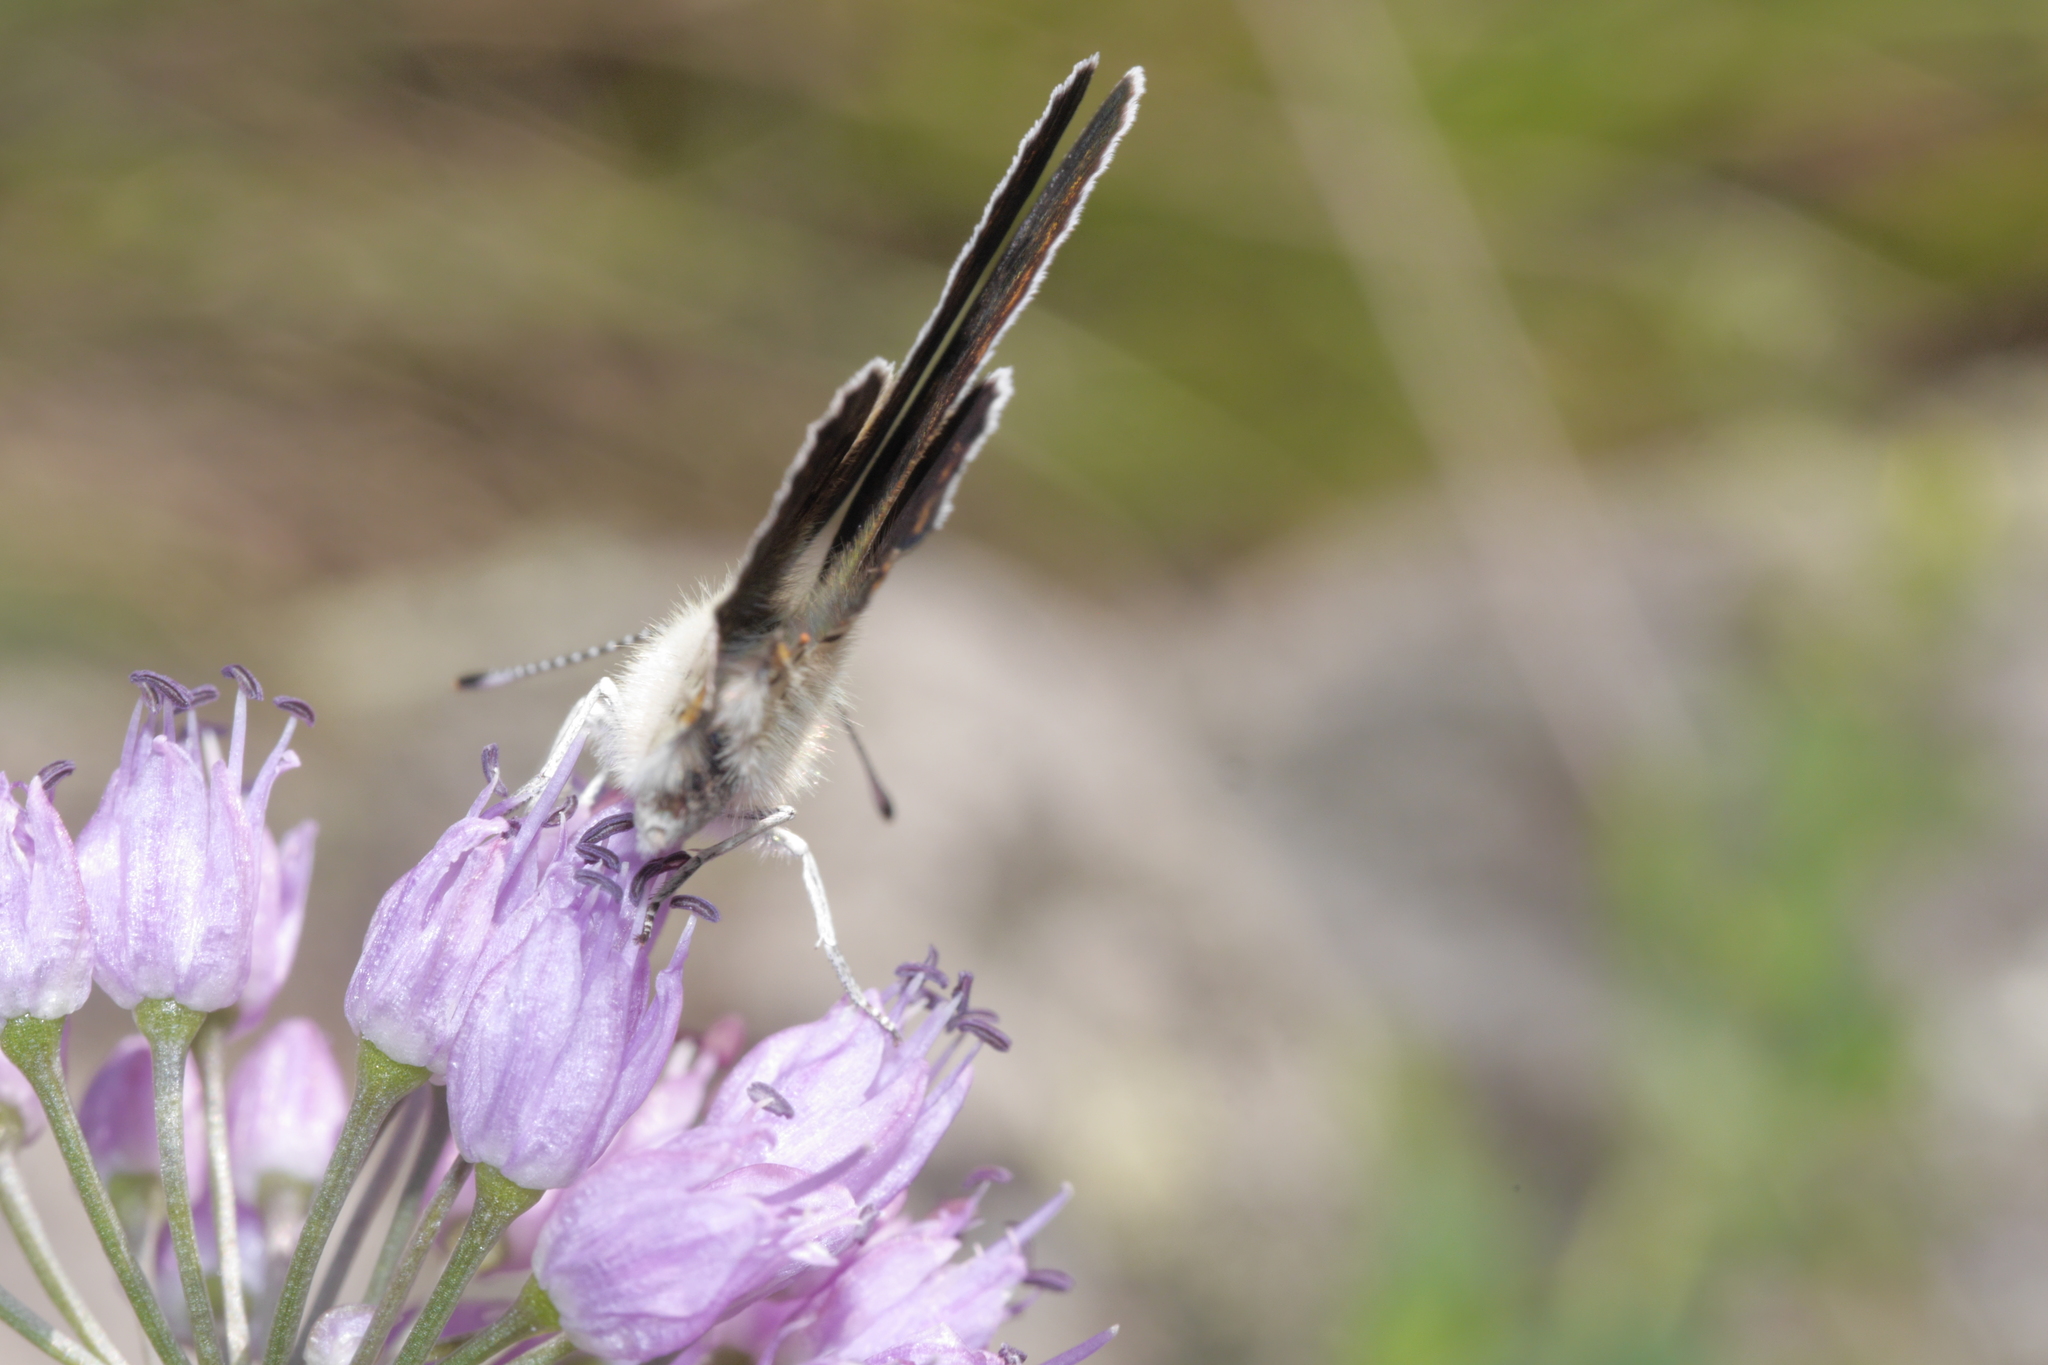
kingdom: Animalia
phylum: Arthropoda
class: Insecta
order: Lepidoptera
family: Lycaenidae
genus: Loweia
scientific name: Loweia tityrus
